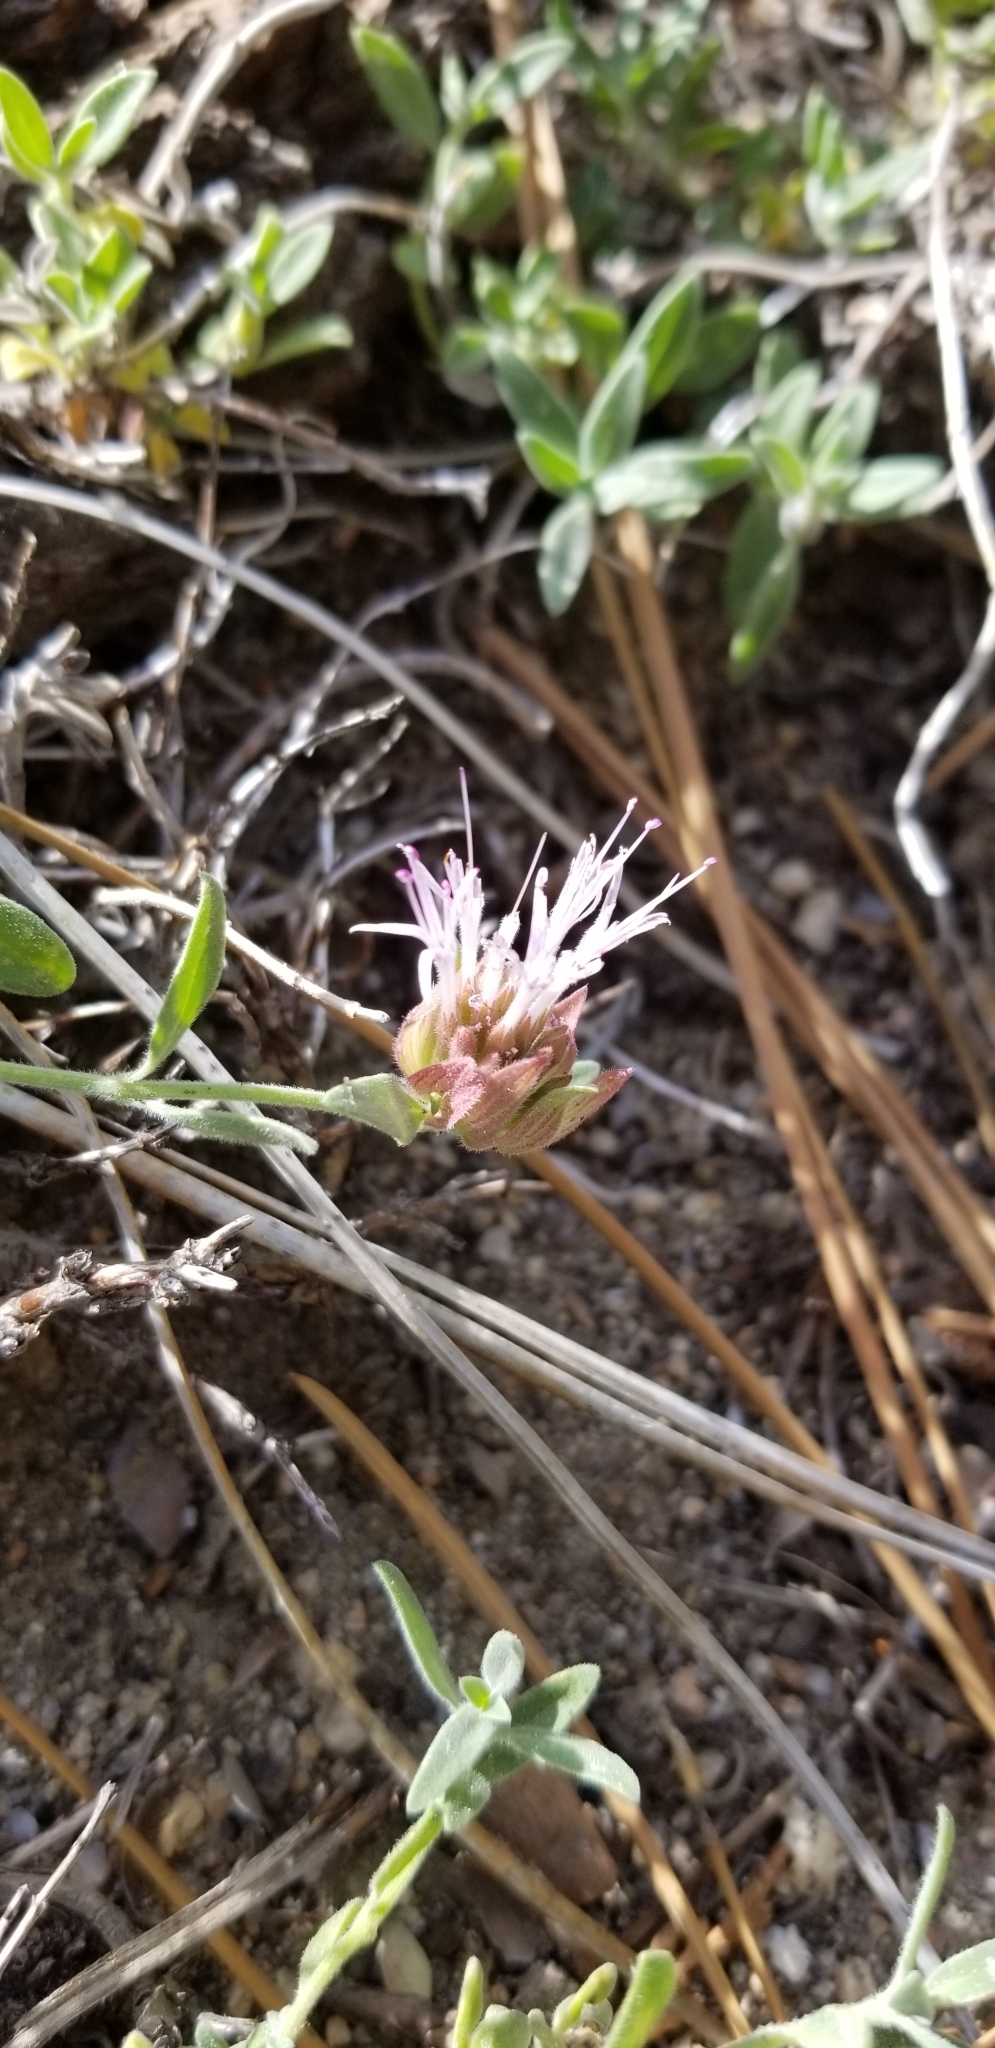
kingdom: Plantae
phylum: Tracheophyta
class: Magnoliopsida
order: Lamiales
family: Lamiaceae
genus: Monardella
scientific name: Monardella australis
